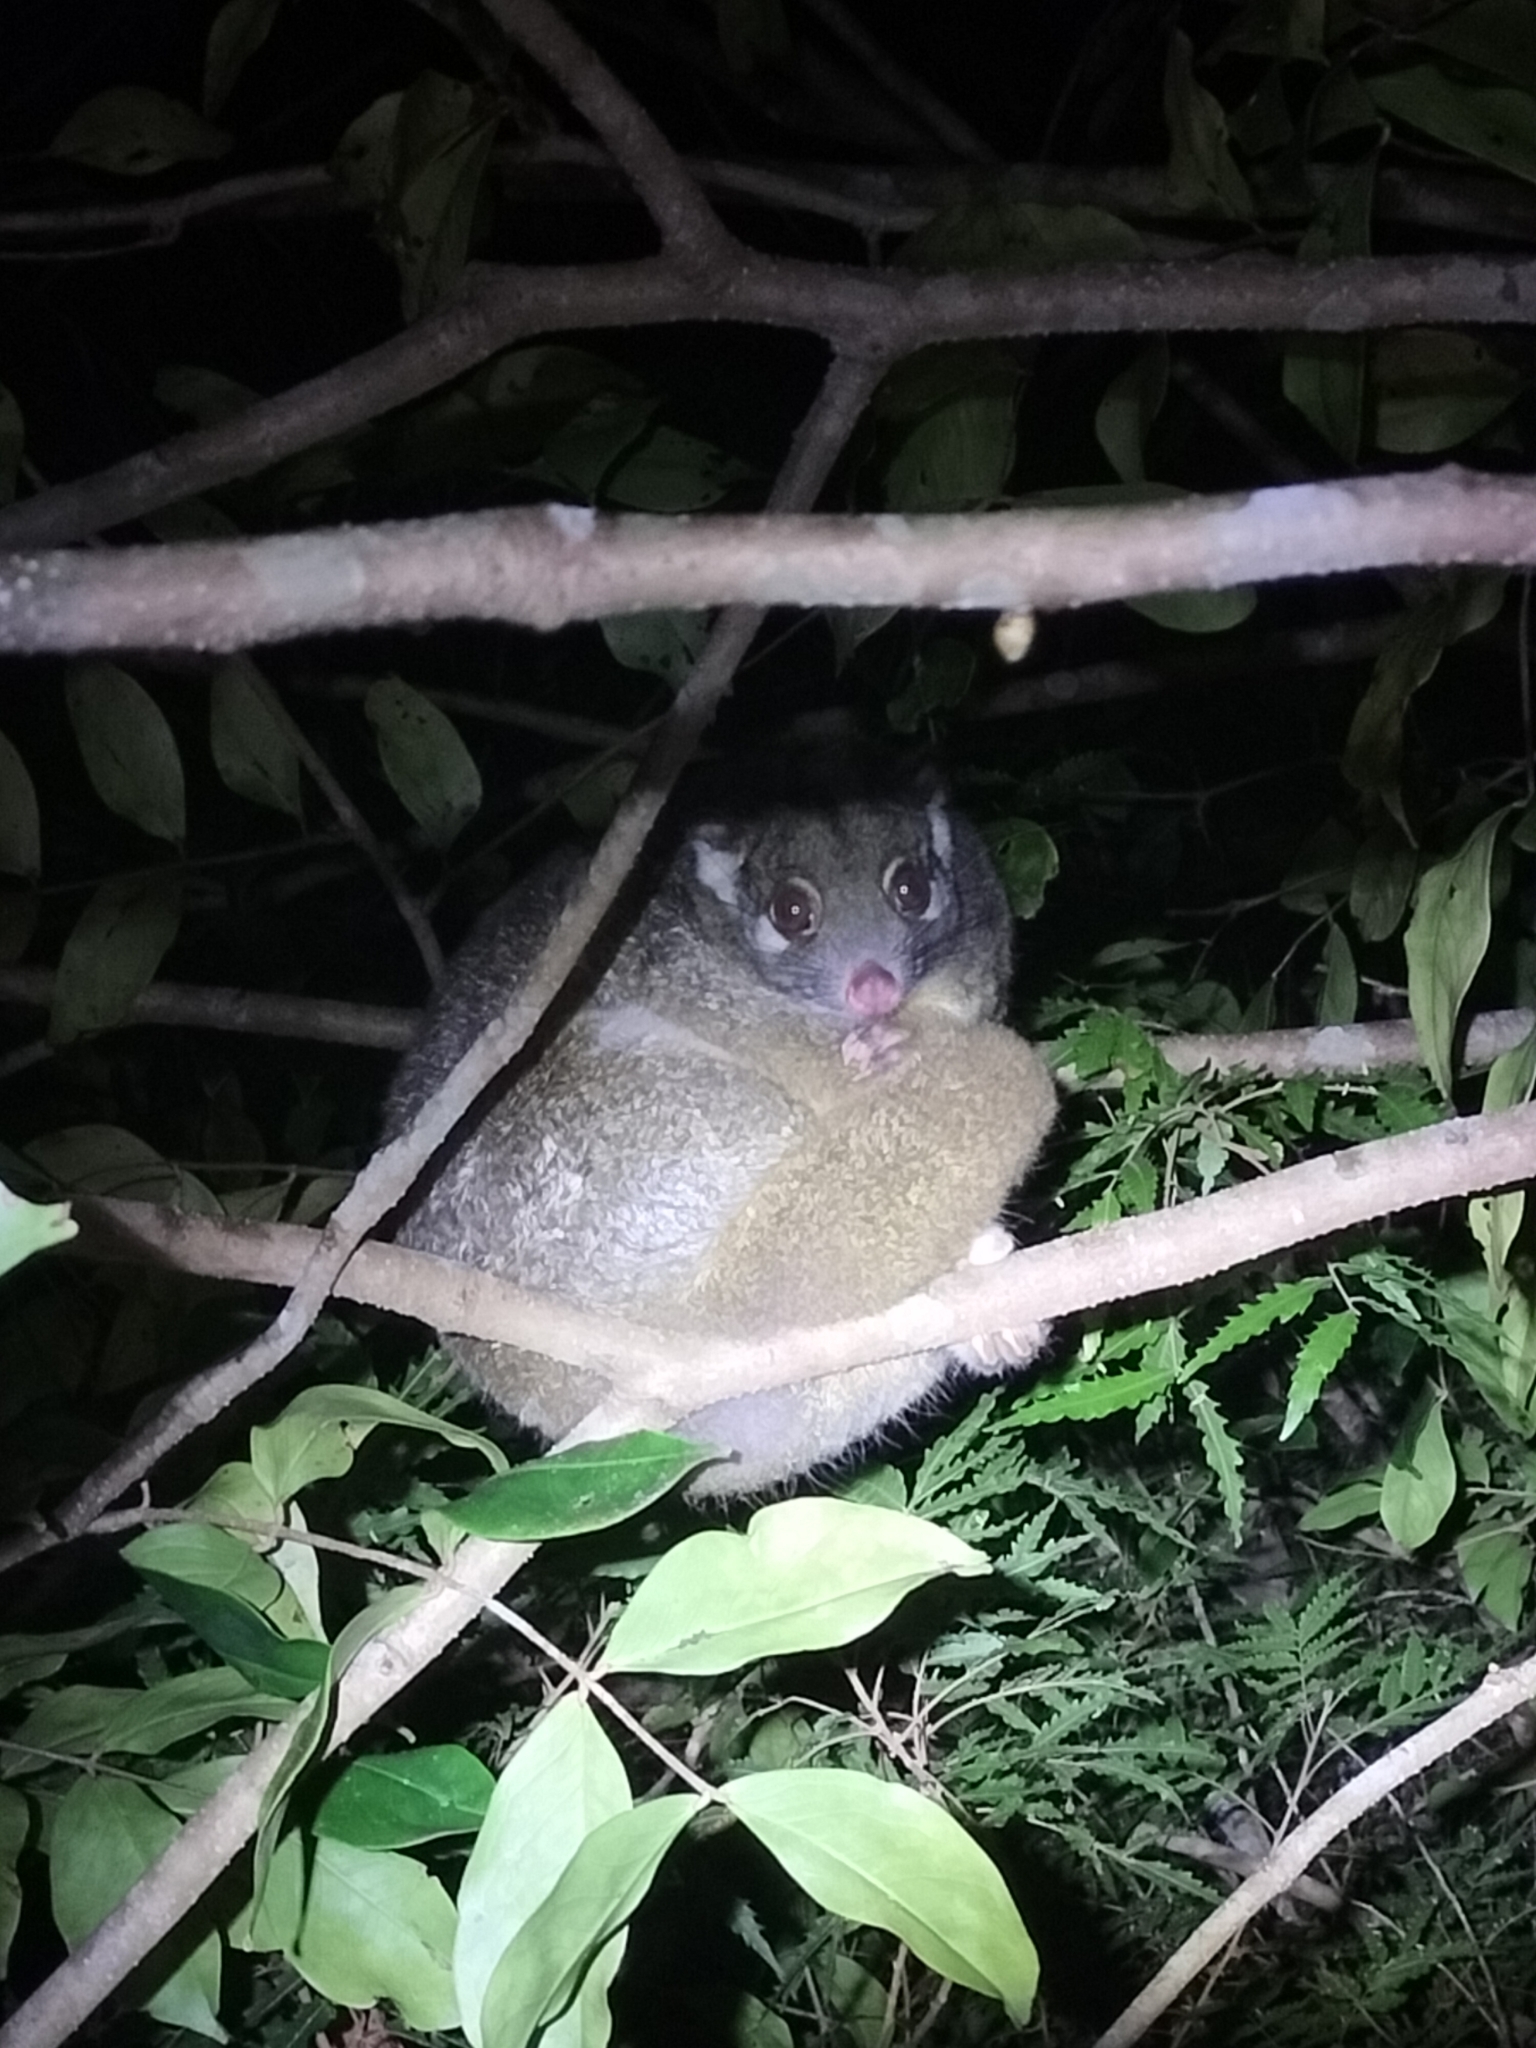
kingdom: Animalia
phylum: Chordata
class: Mammalia
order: Diprotodontia
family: Pseudocheiridae
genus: Pseudochirops
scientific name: Pseudochirops archeri
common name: Green ringtail
